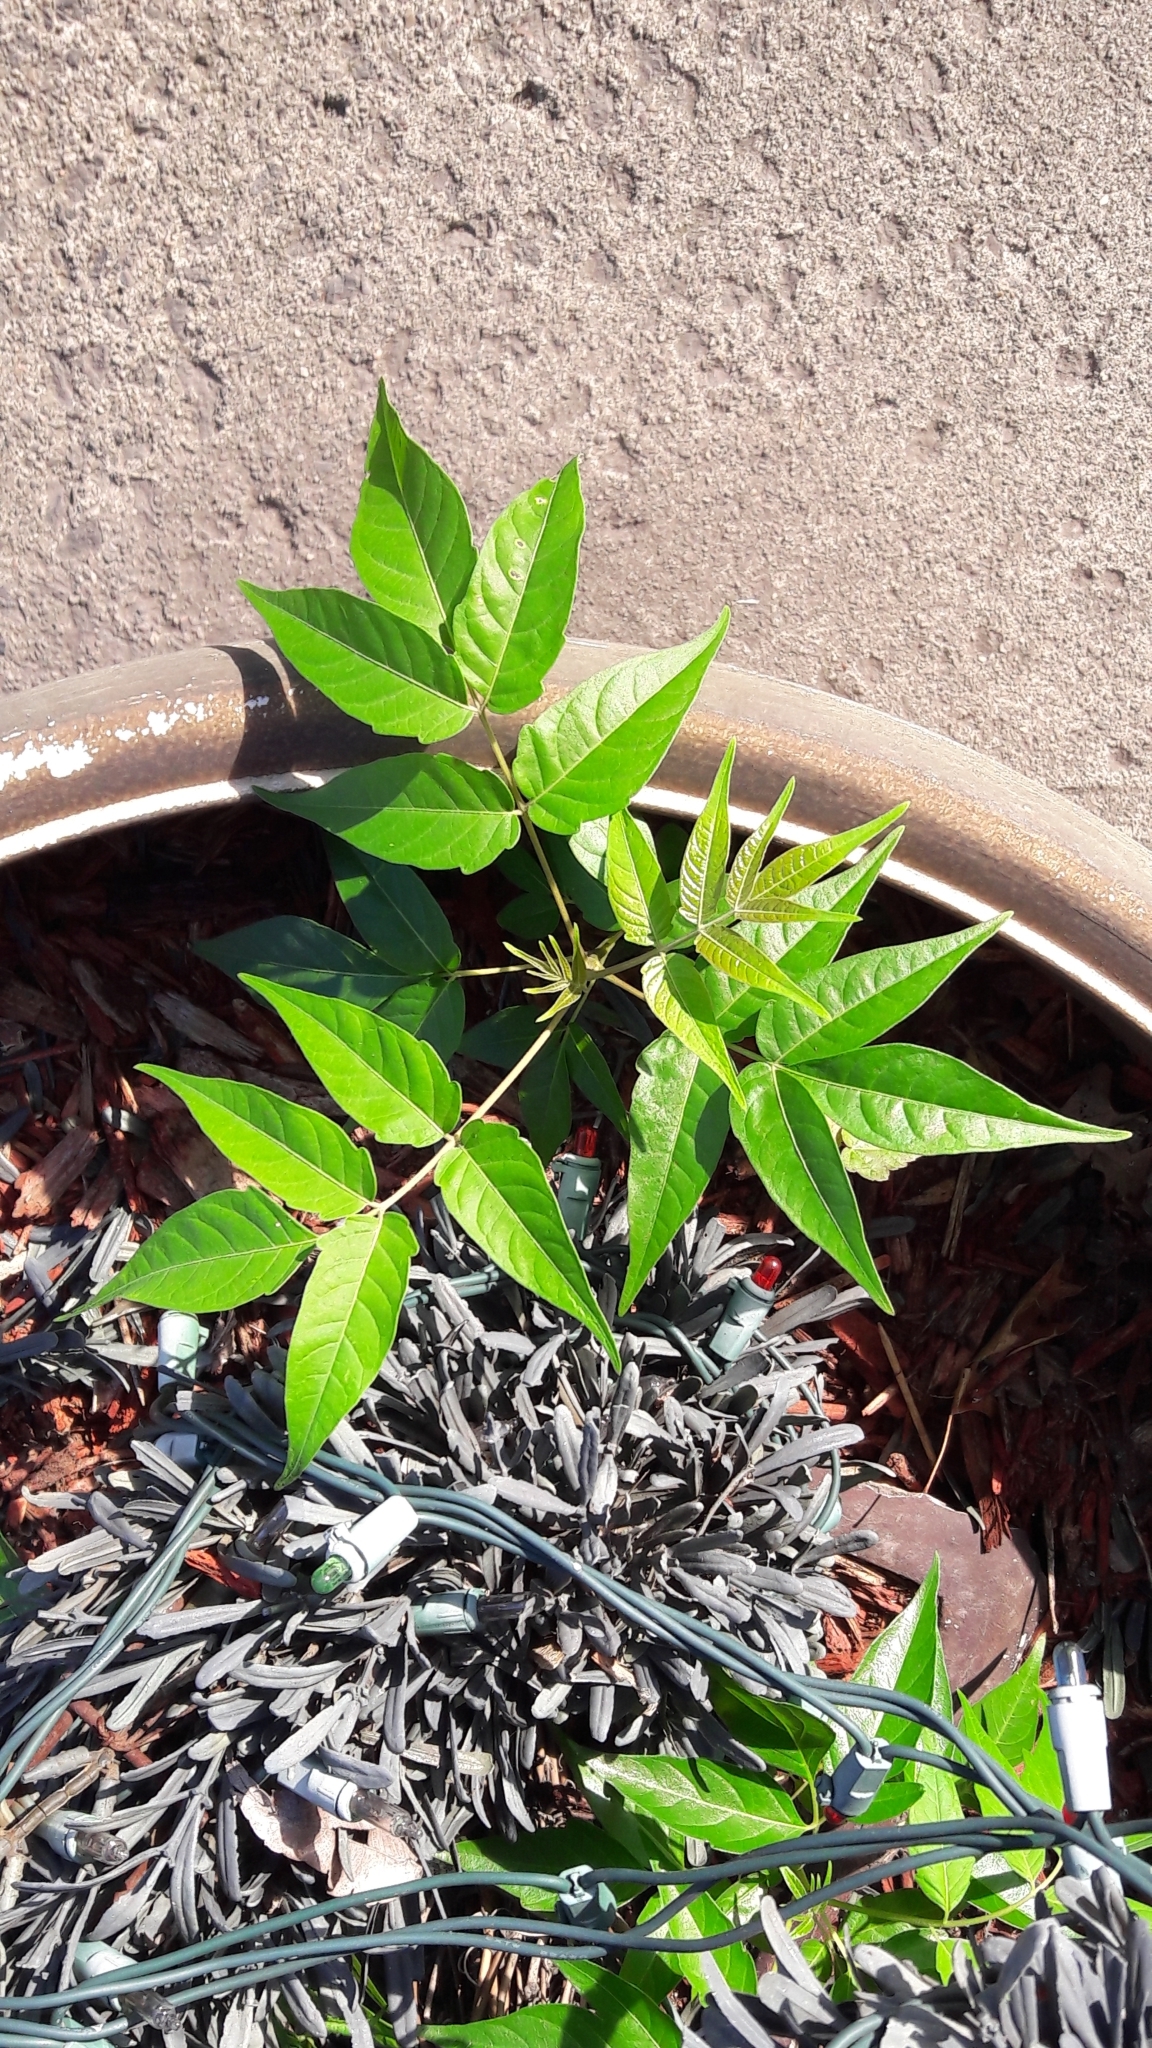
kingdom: Plantae
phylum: Tracheophyta
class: Magnoliopsida
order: Sapindales
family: Simaroubaceae
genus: Ailanthus
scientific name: Ailanthus altissima
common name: Tree-of-heaven
